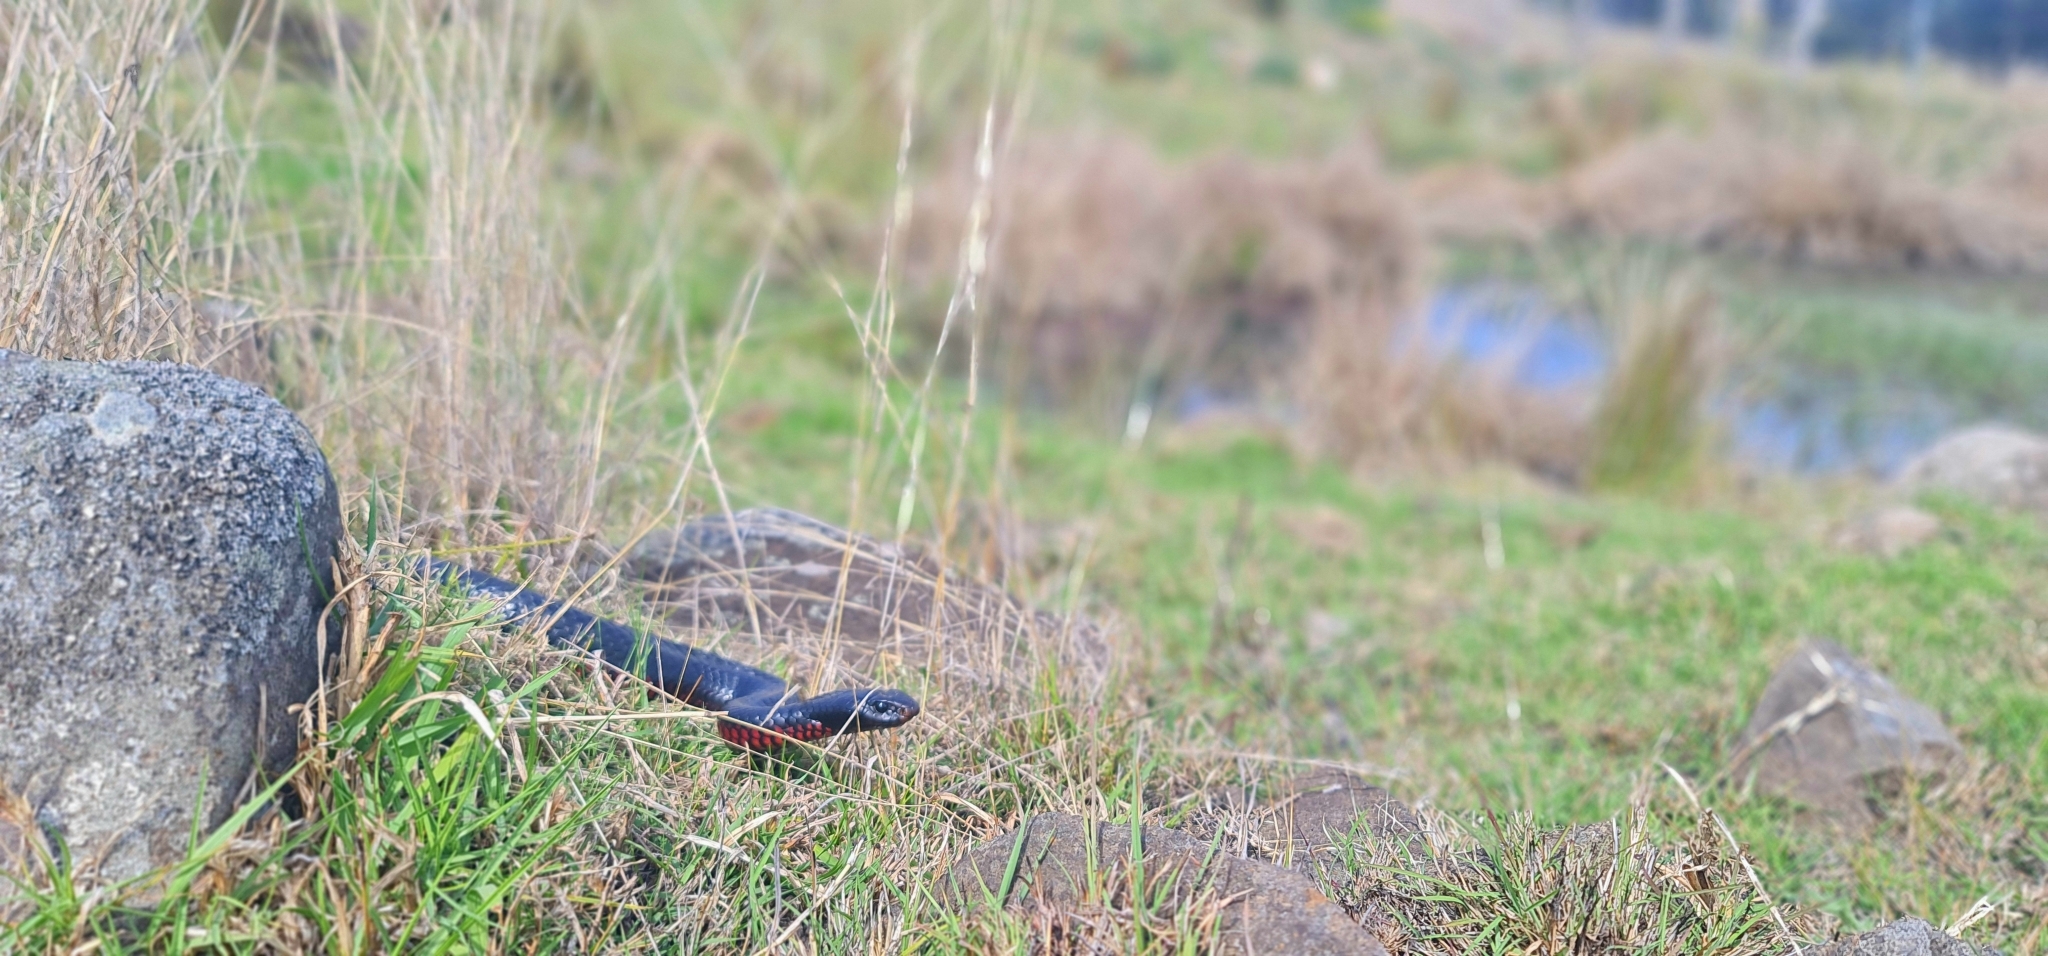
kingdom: Animalia
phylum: Chordata
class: Squamata
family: Elapidae
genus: Pseudechis
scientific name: Pseudechis porphyriacus
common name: Australian black snake
